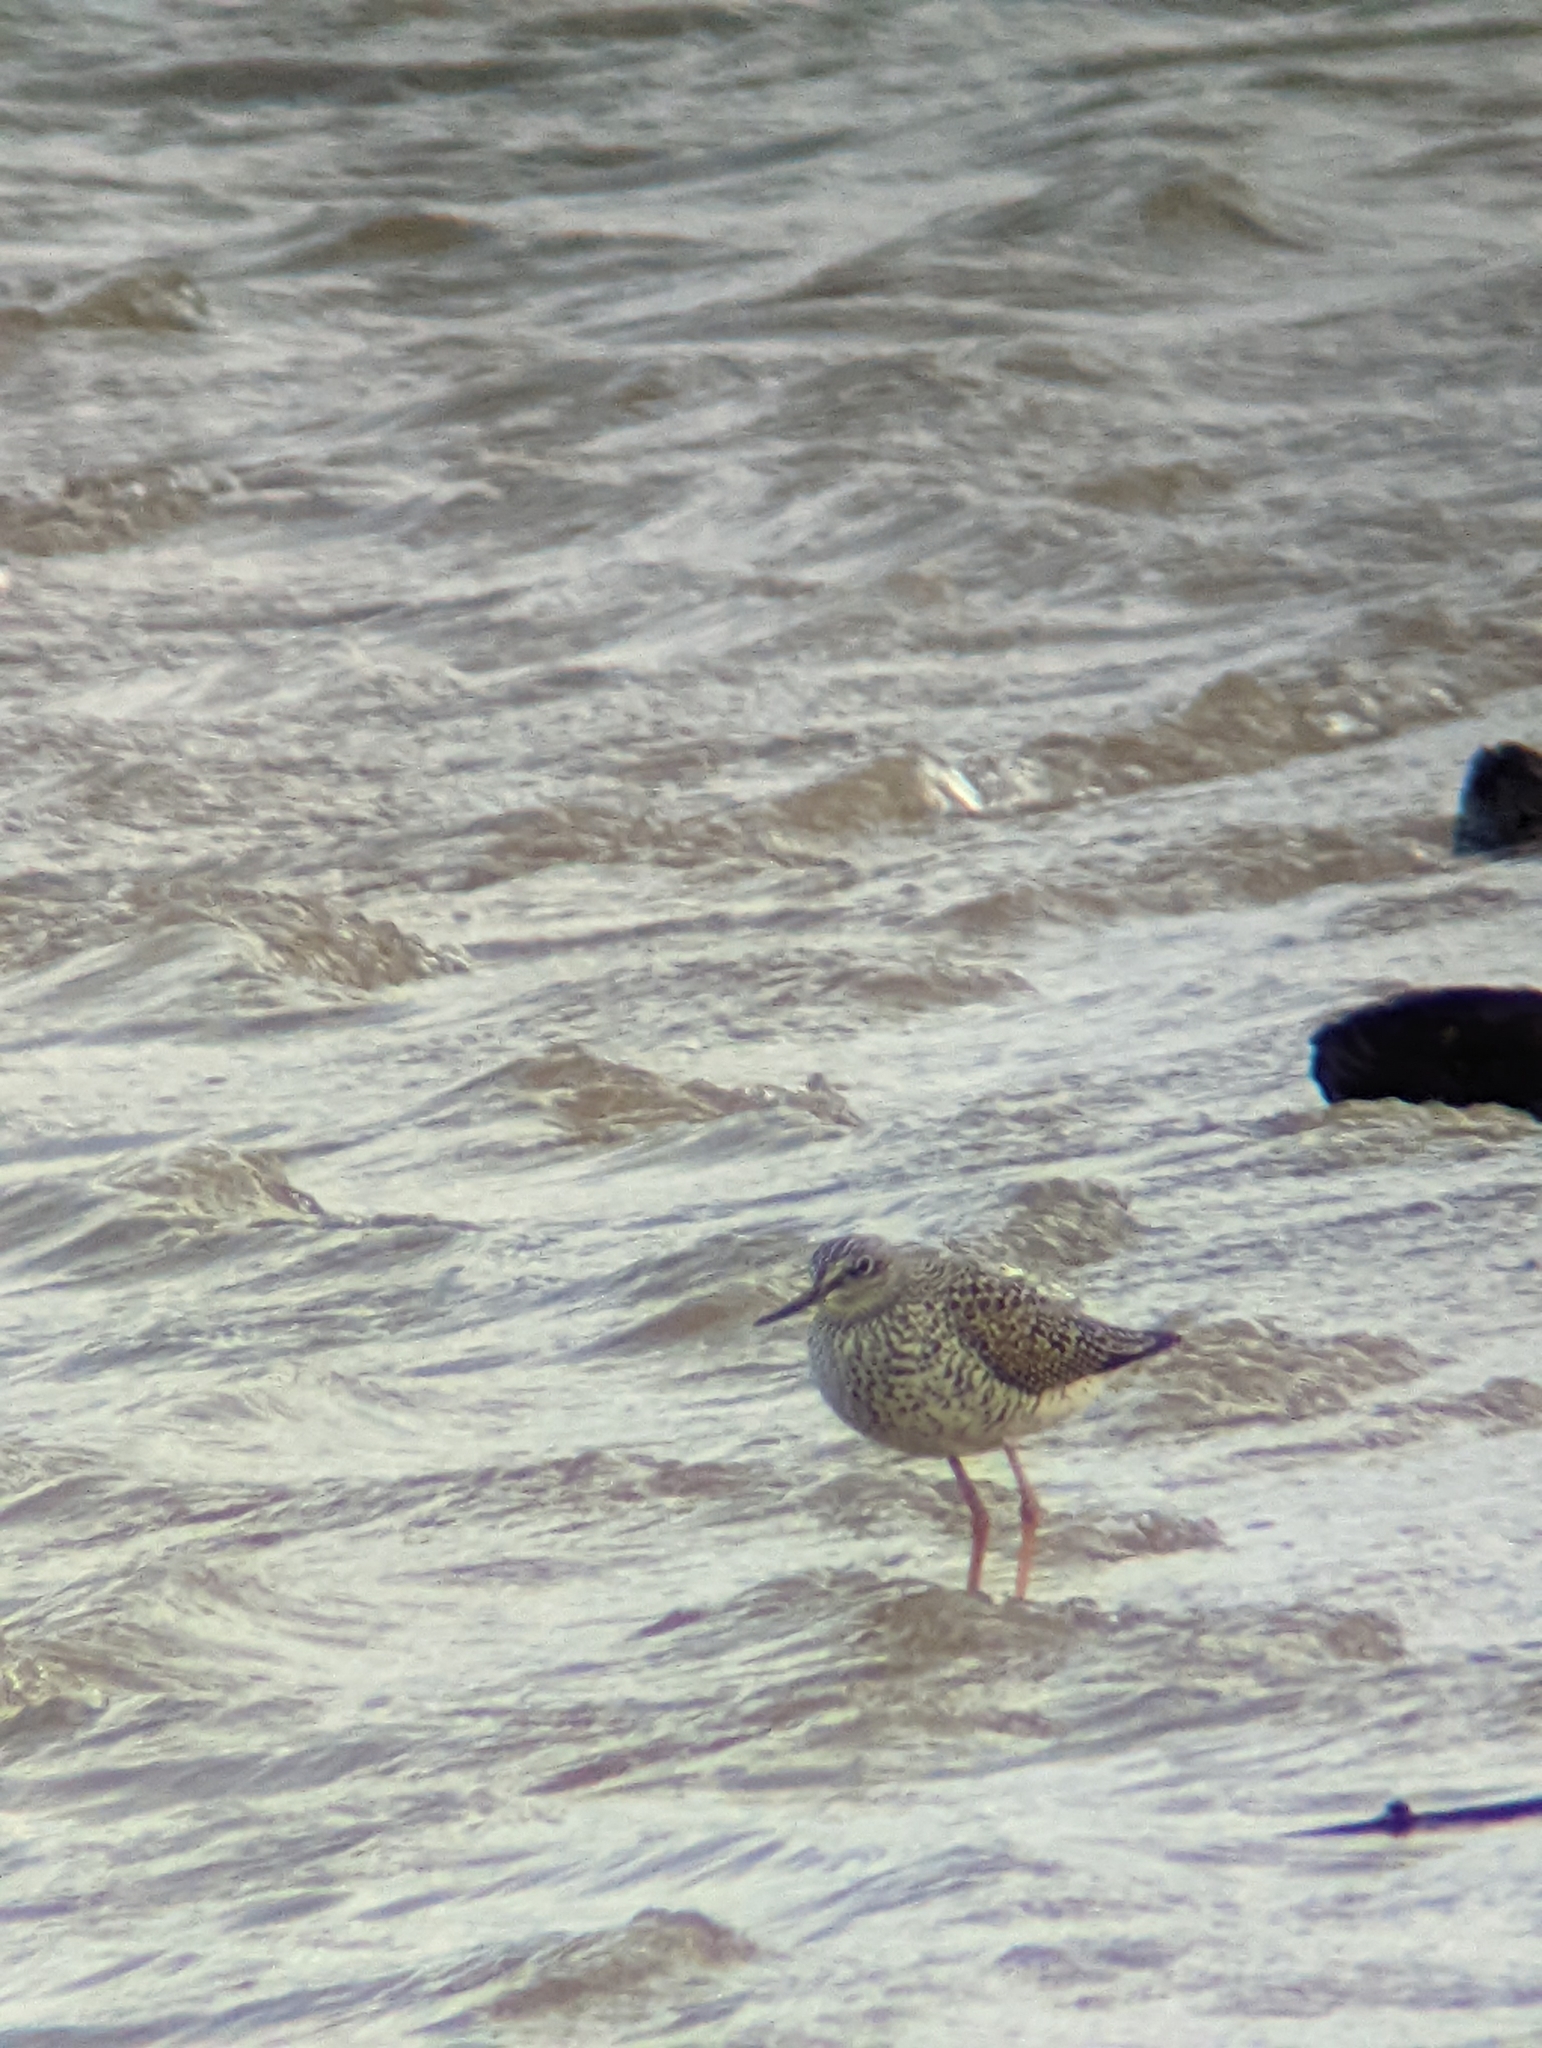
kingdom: Animalia
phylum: Chordata
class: Aves
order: Charadriiformes
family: Scolopacidae
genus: Tringa
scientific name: Tringa melanoleuca
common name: Greater yellowlegs
